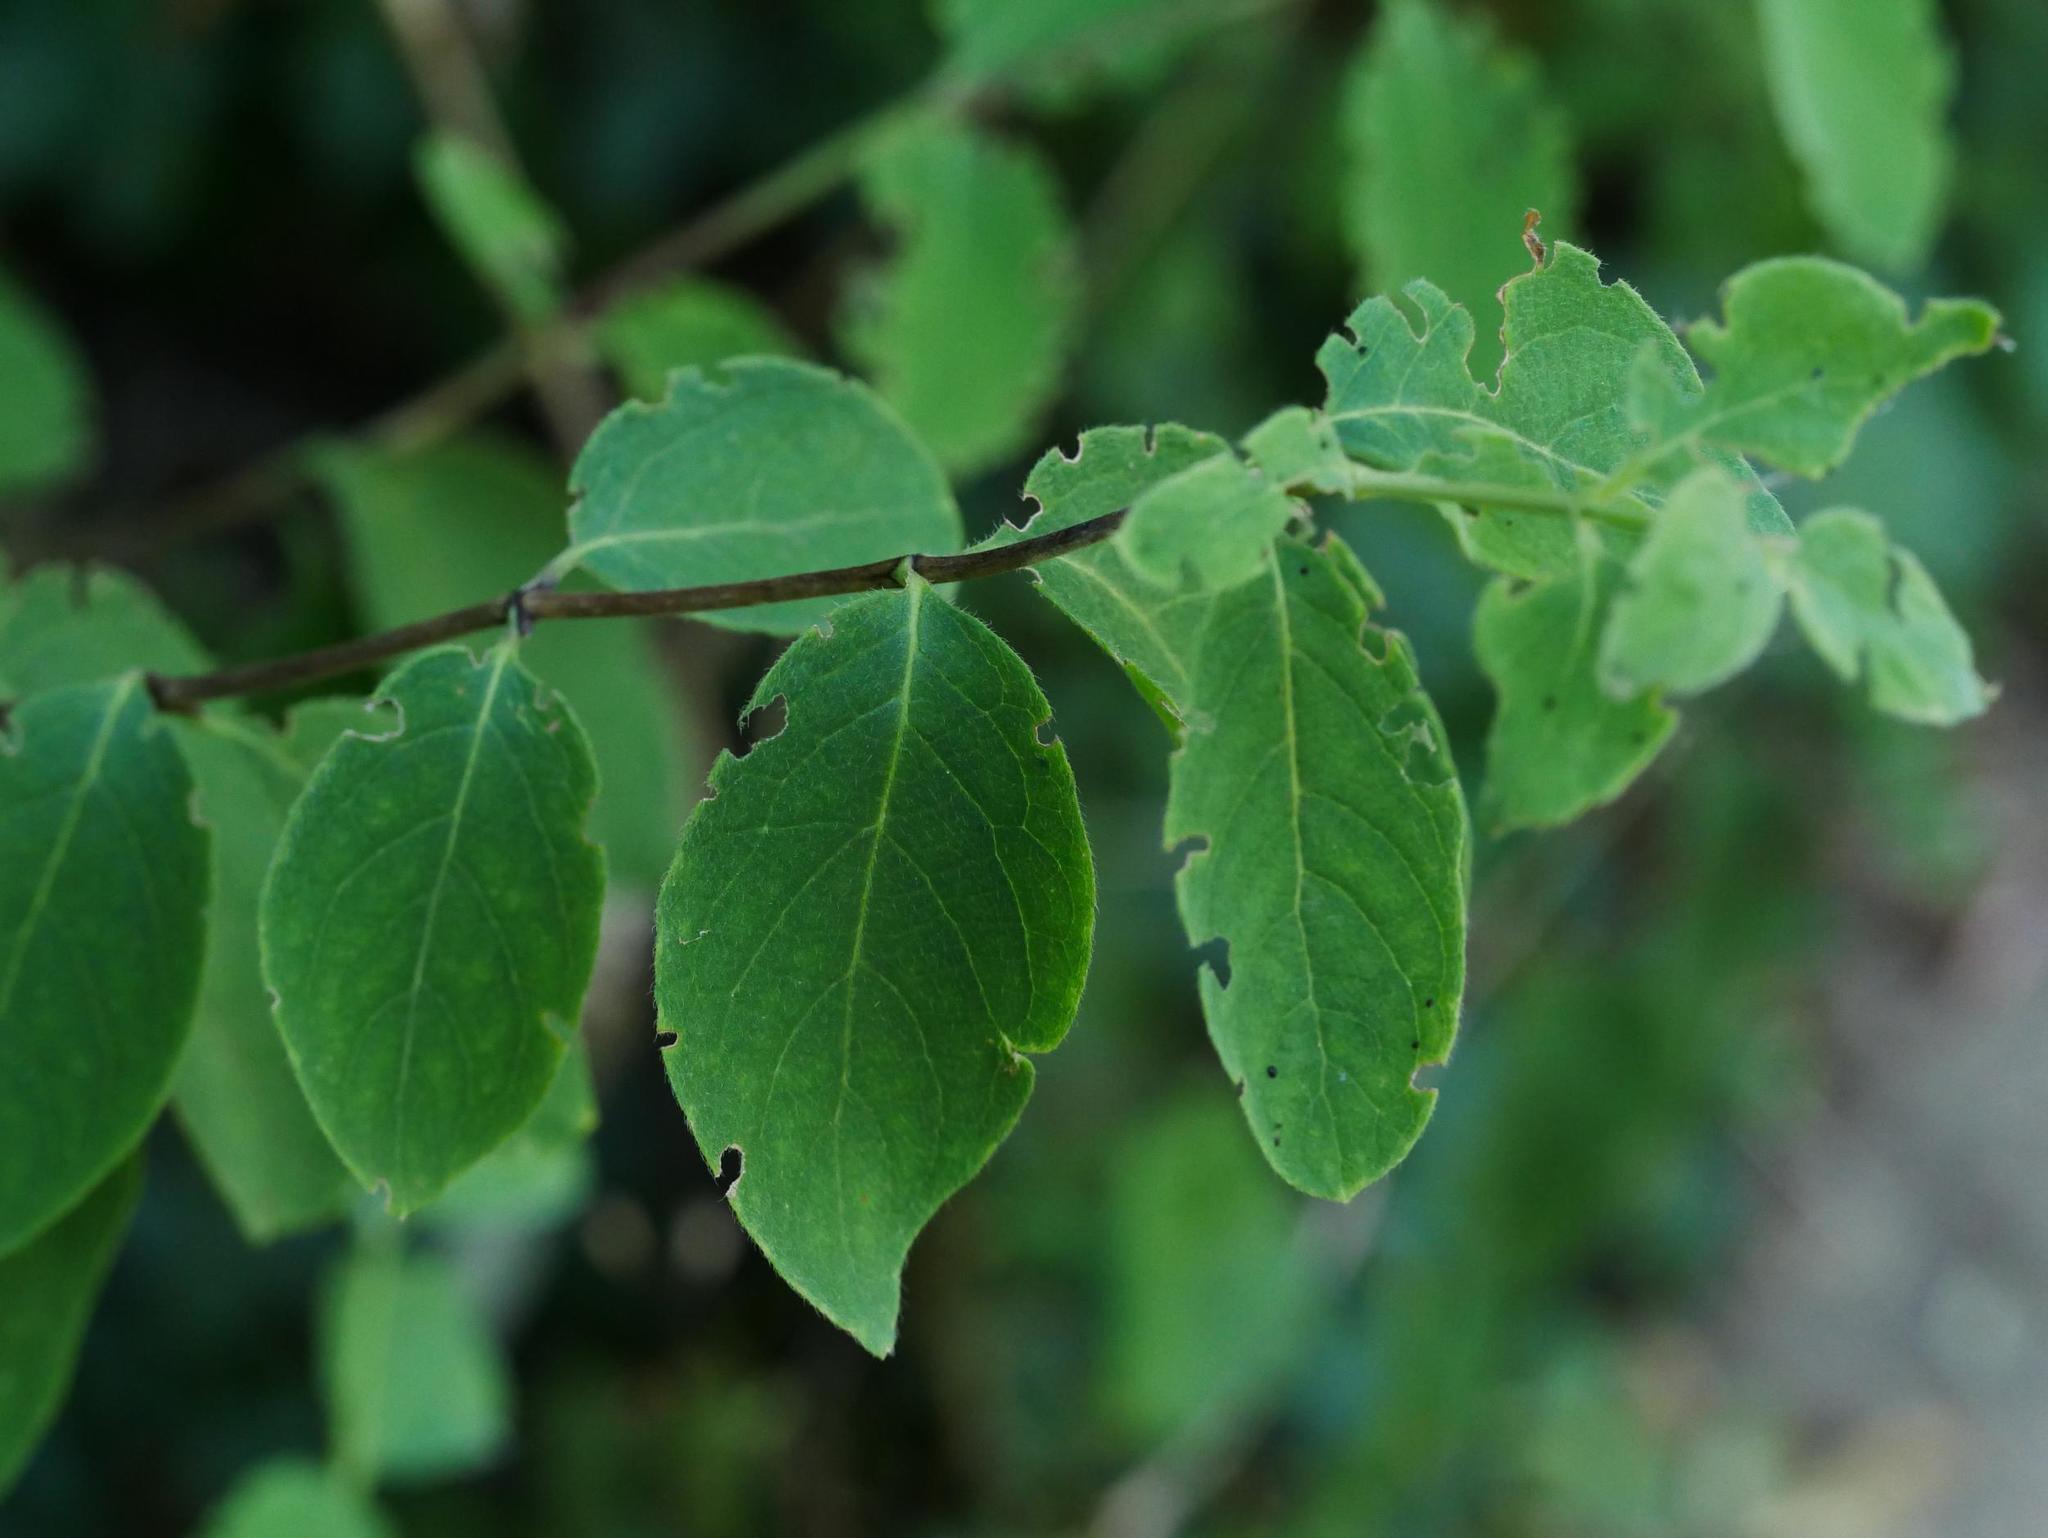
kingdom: Plantae
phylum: Tracheophyta
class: Magnoliopsida
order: Dipsacales
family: Caprifoliaceae
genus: Symphoricarpos
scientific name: Symphoricarpos albus
